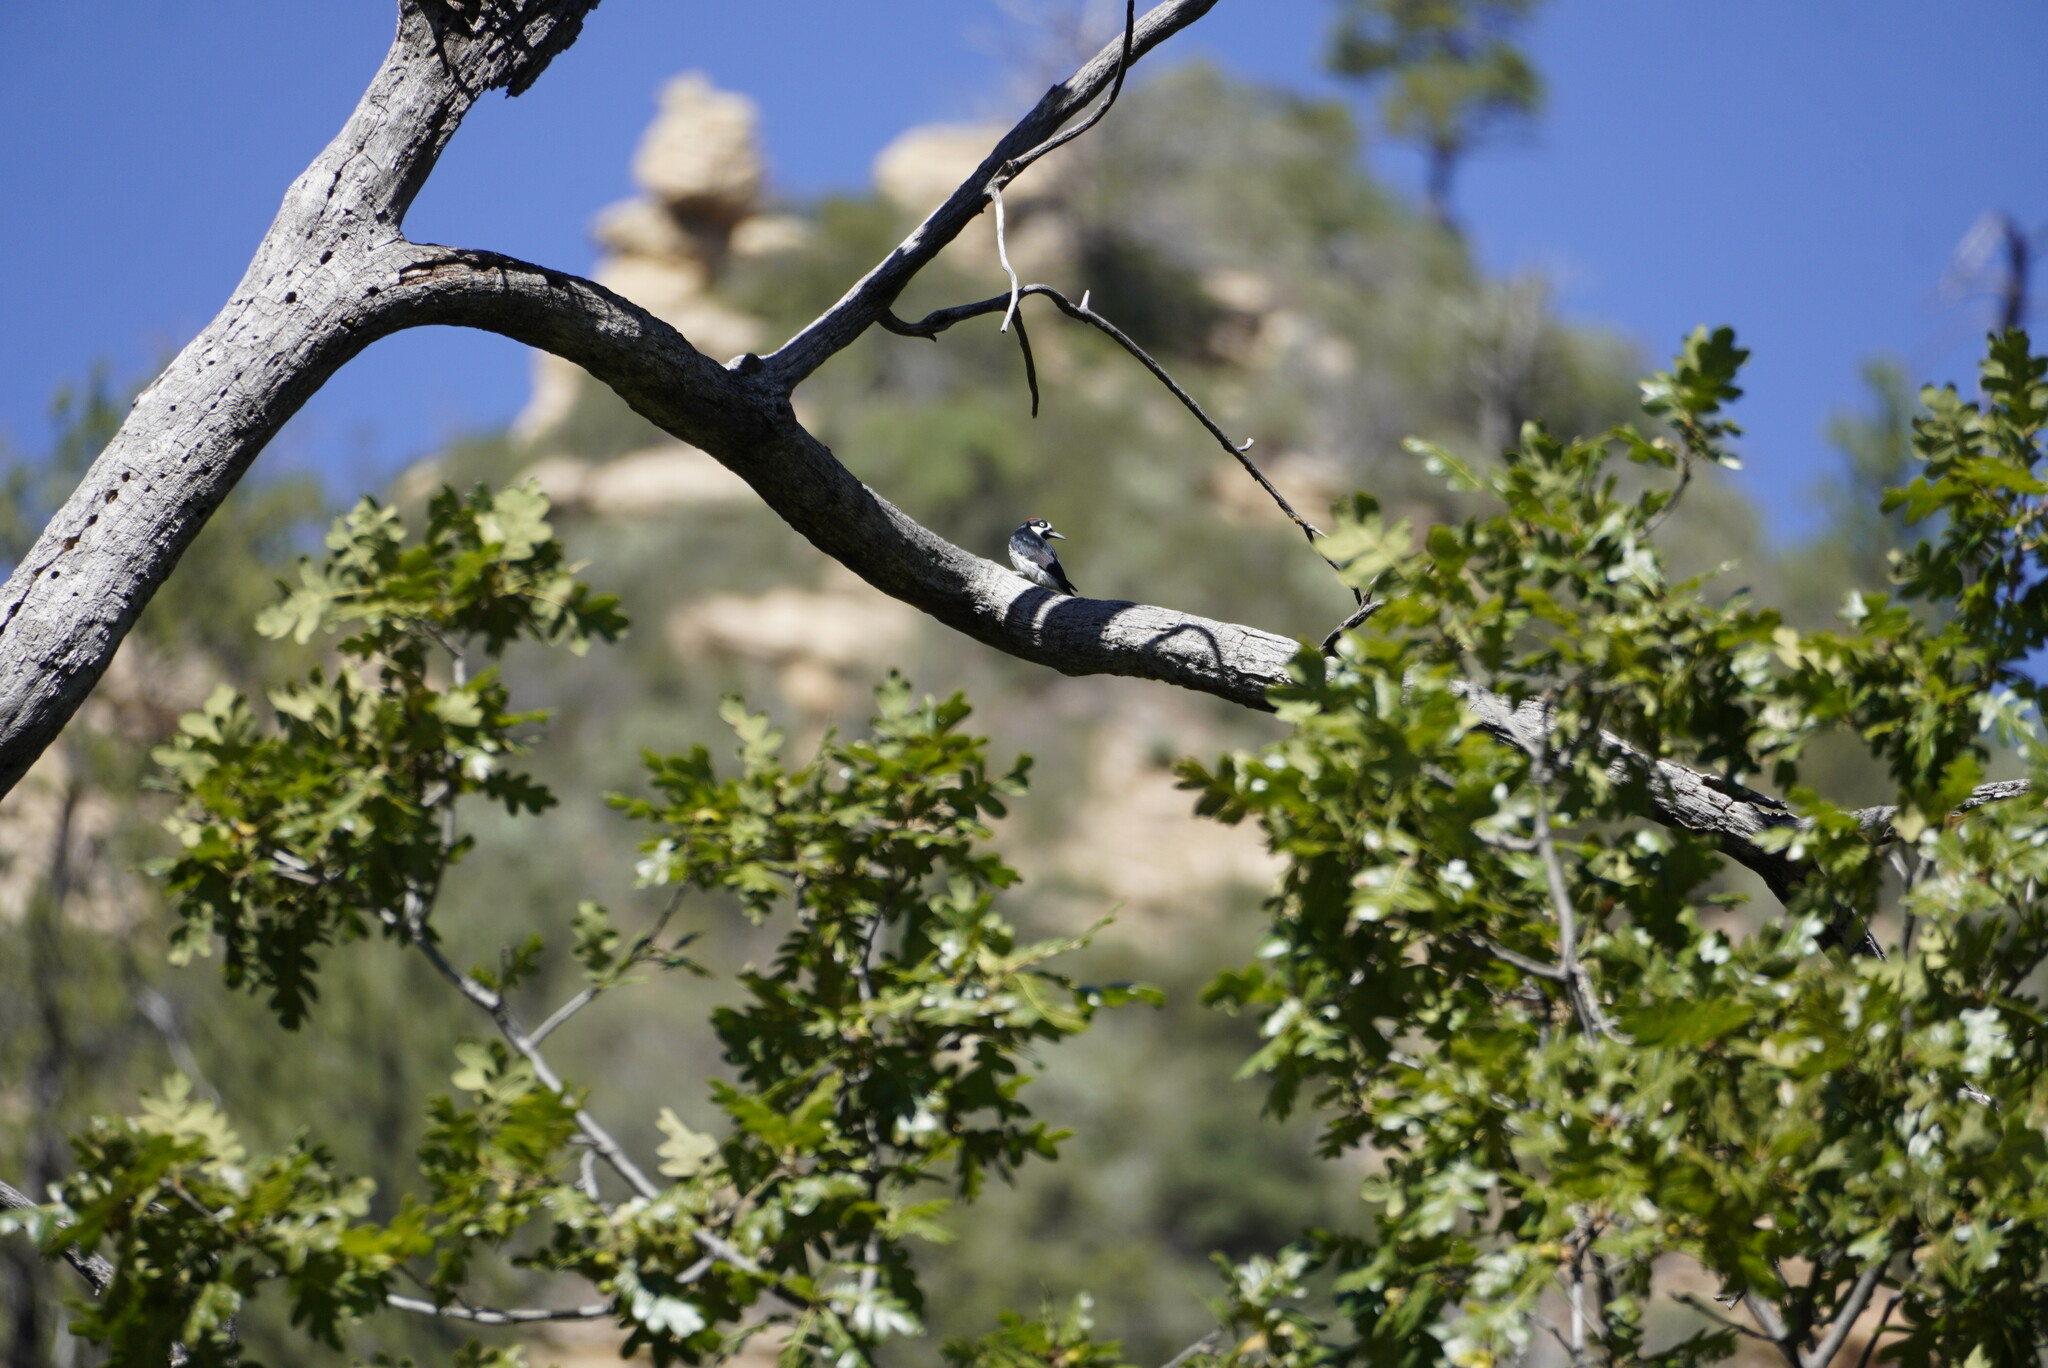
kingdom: Animalia
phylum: Chordata
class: Aves
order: Piciformes
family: Picidae
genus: Melanerpes
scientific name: Melanerpes formicivorus
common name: Acorn woodpecker
